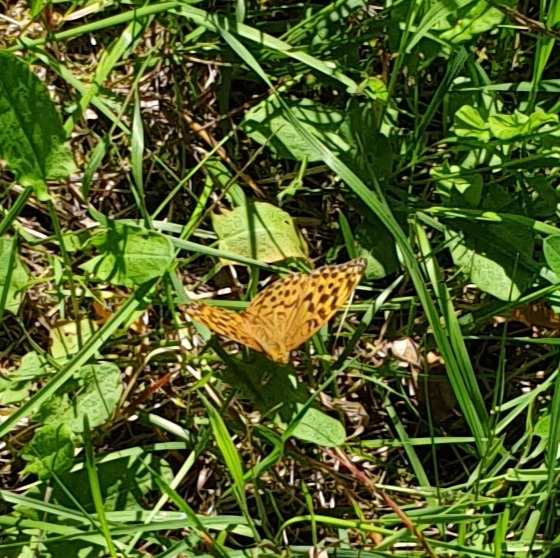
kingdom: Animalia
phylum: Arthropoda
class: Insecta
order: Lepidoptera
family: Nymphalidae
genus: Argynnis
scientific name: Argynnis paphia
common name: Silver-washed fritillary
